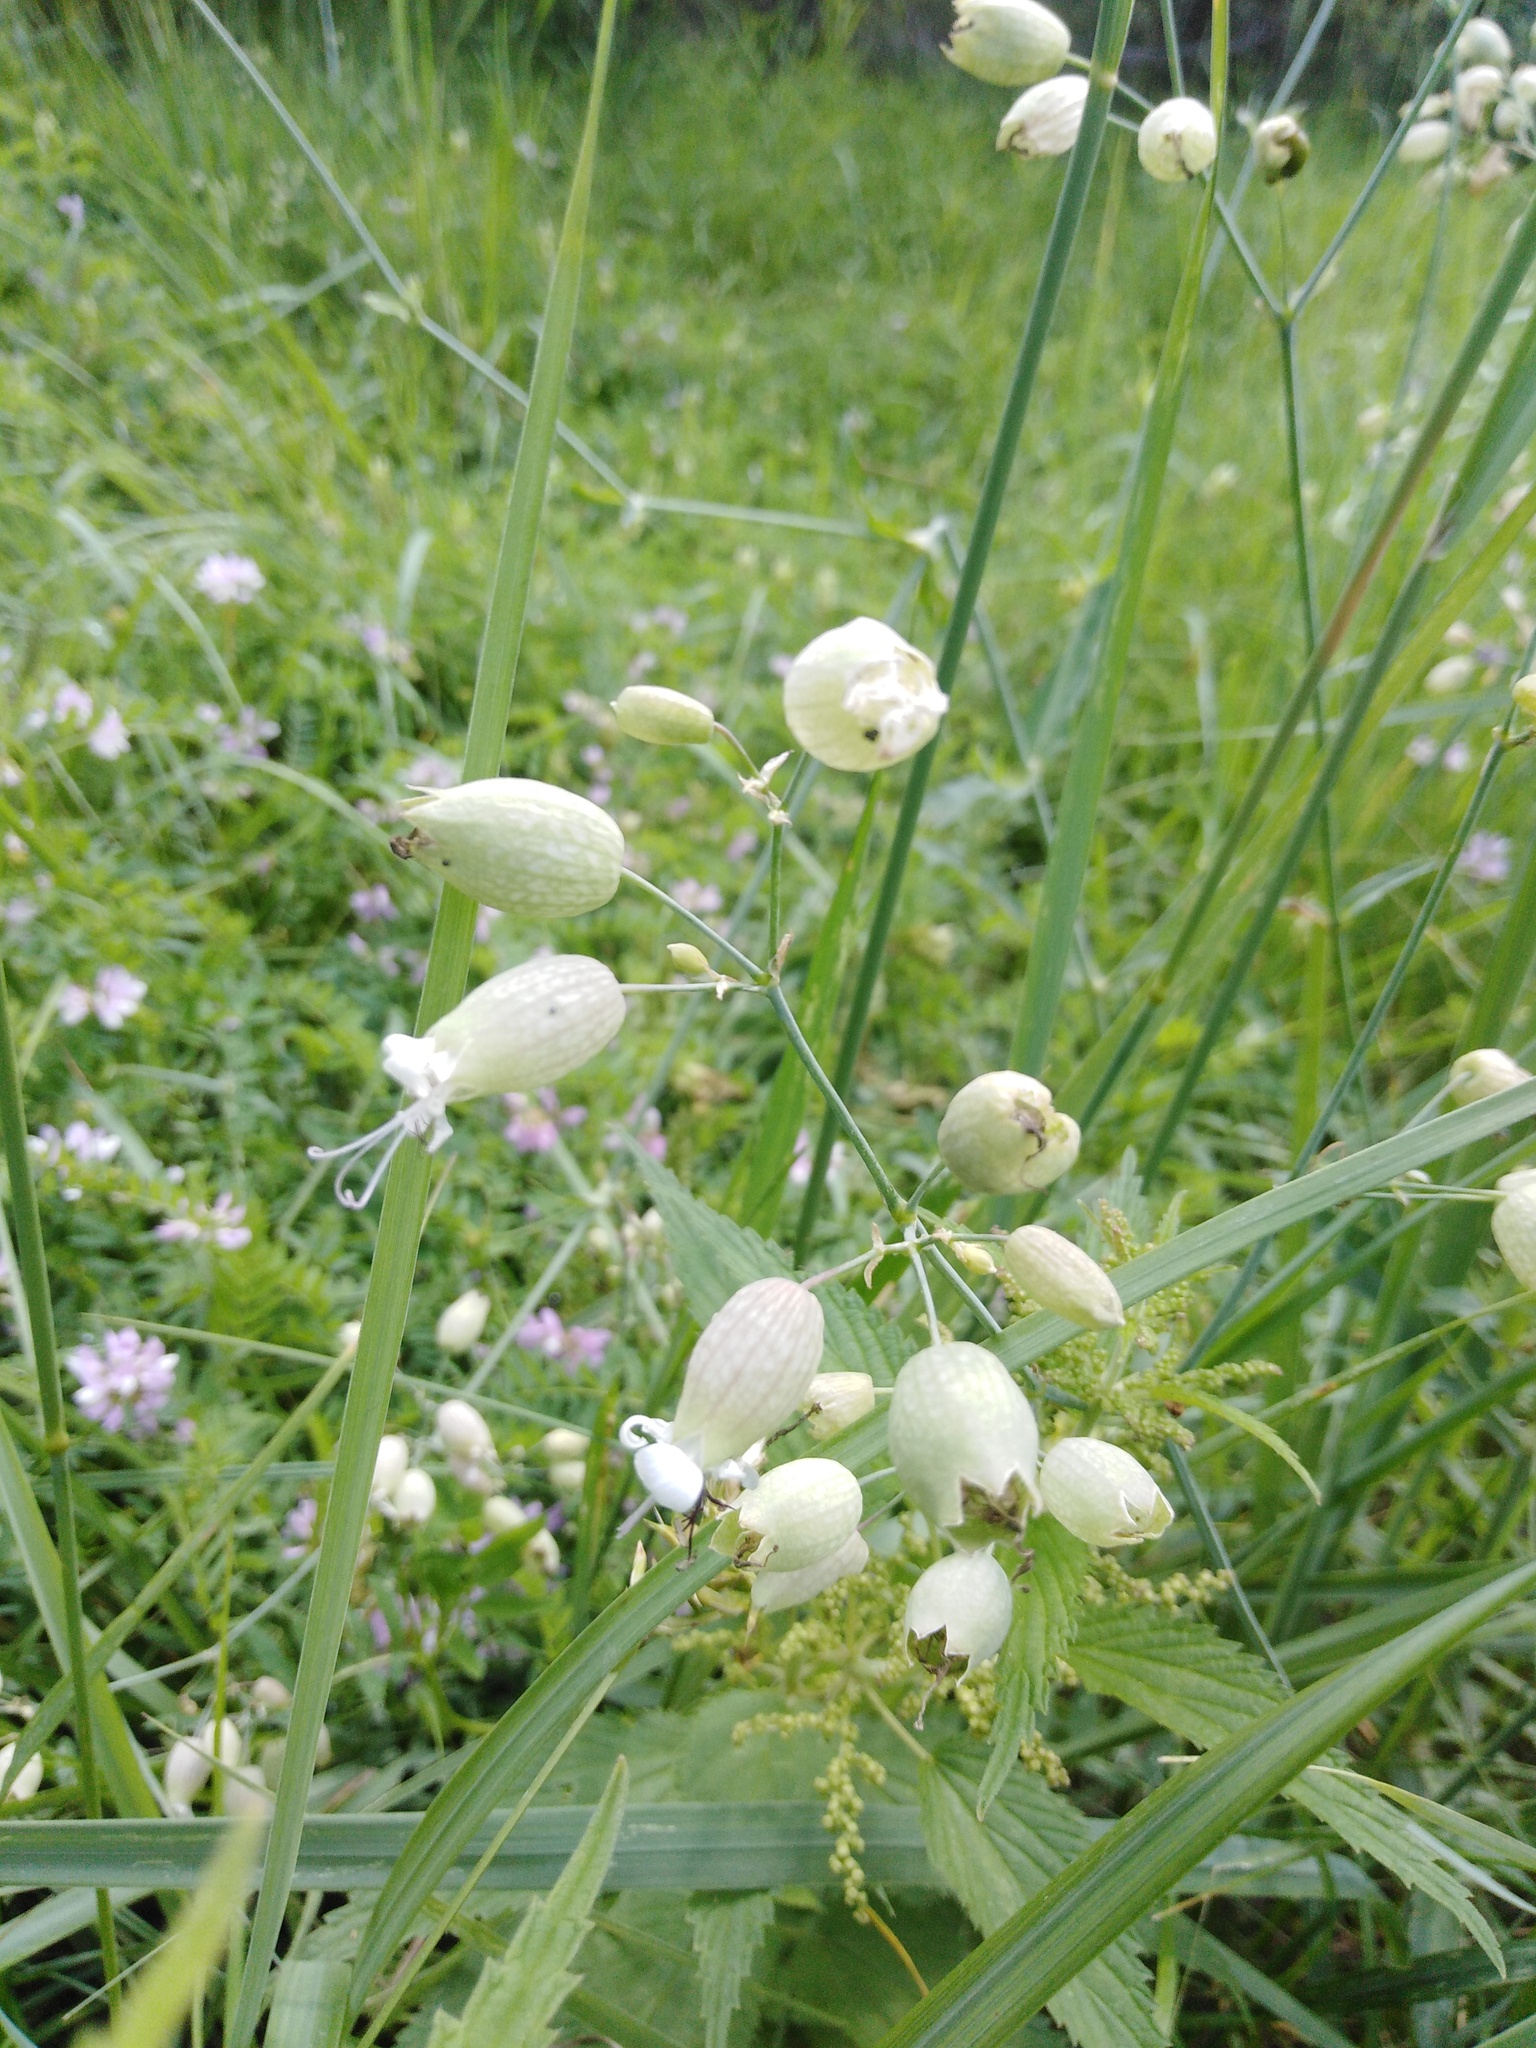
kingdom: Plantae
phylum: Tracheophyta
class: Magnoliopsida
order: Caryophyllales
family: Caryophyllaceae
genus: Silene
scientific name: Silene vulgaris
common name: Bladder campion
